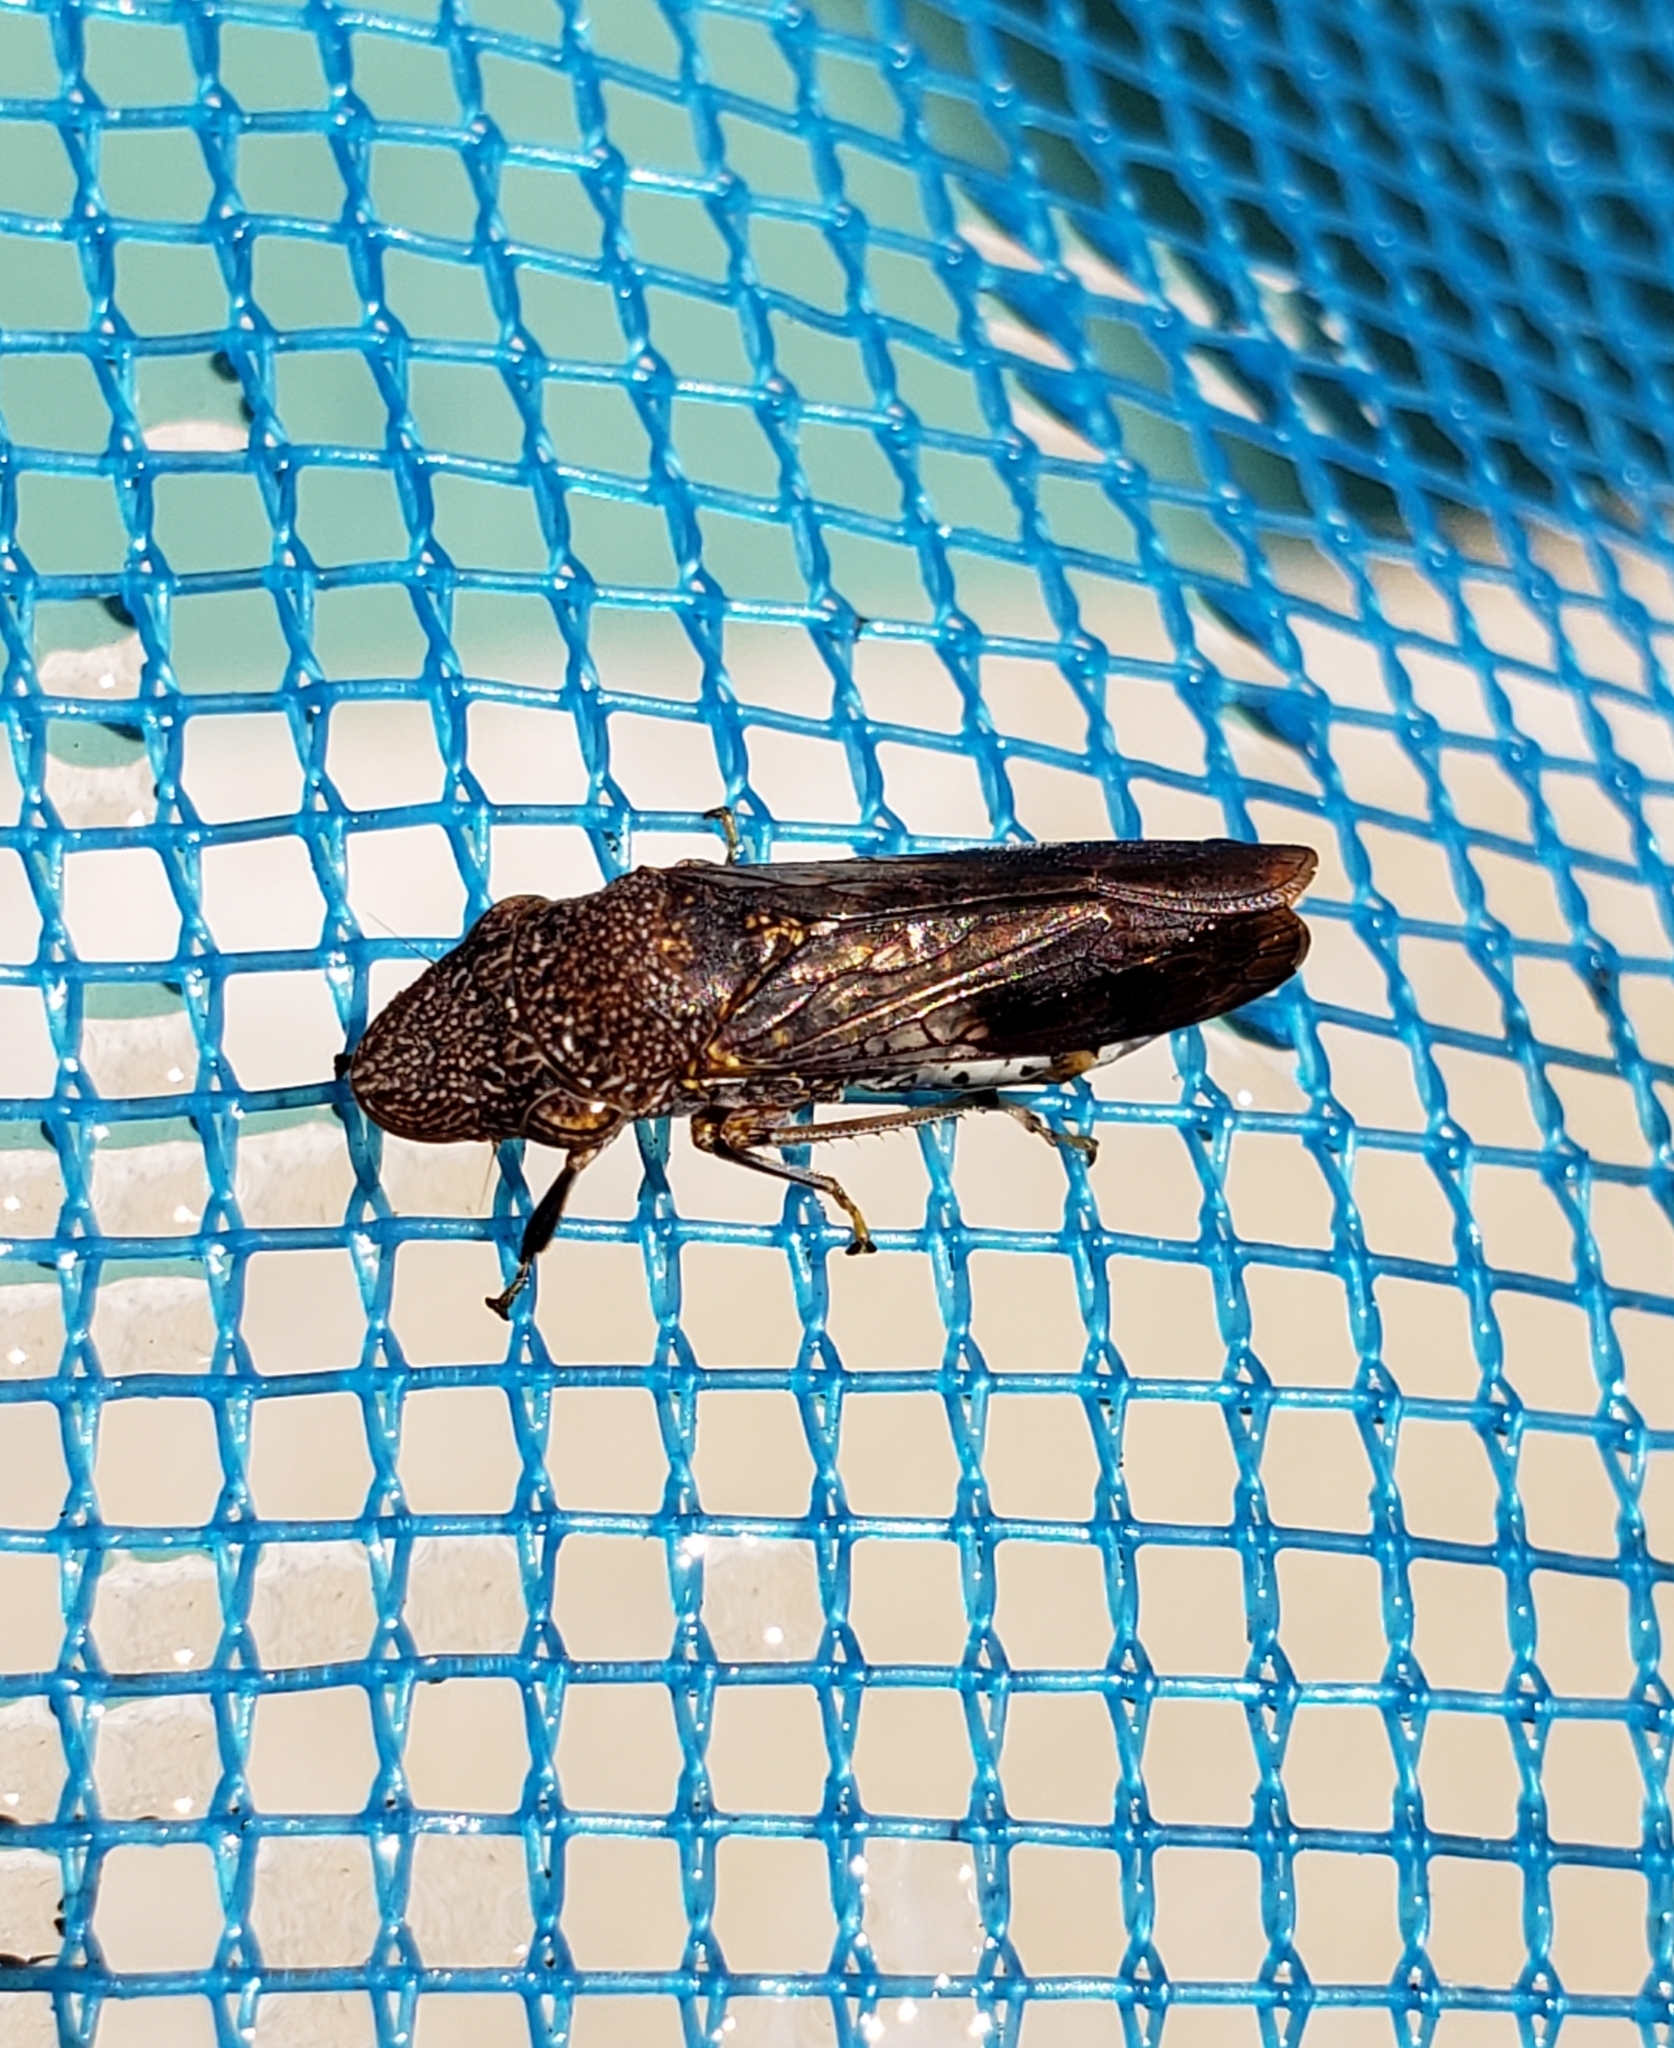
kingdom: Animalia
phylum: Arthropoda
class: Insecta
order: Hemiptera
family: Cicadellidae
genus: Homalodisca
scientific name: Homalodisca vitripennis
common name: Glassy-winged sharpshooter
